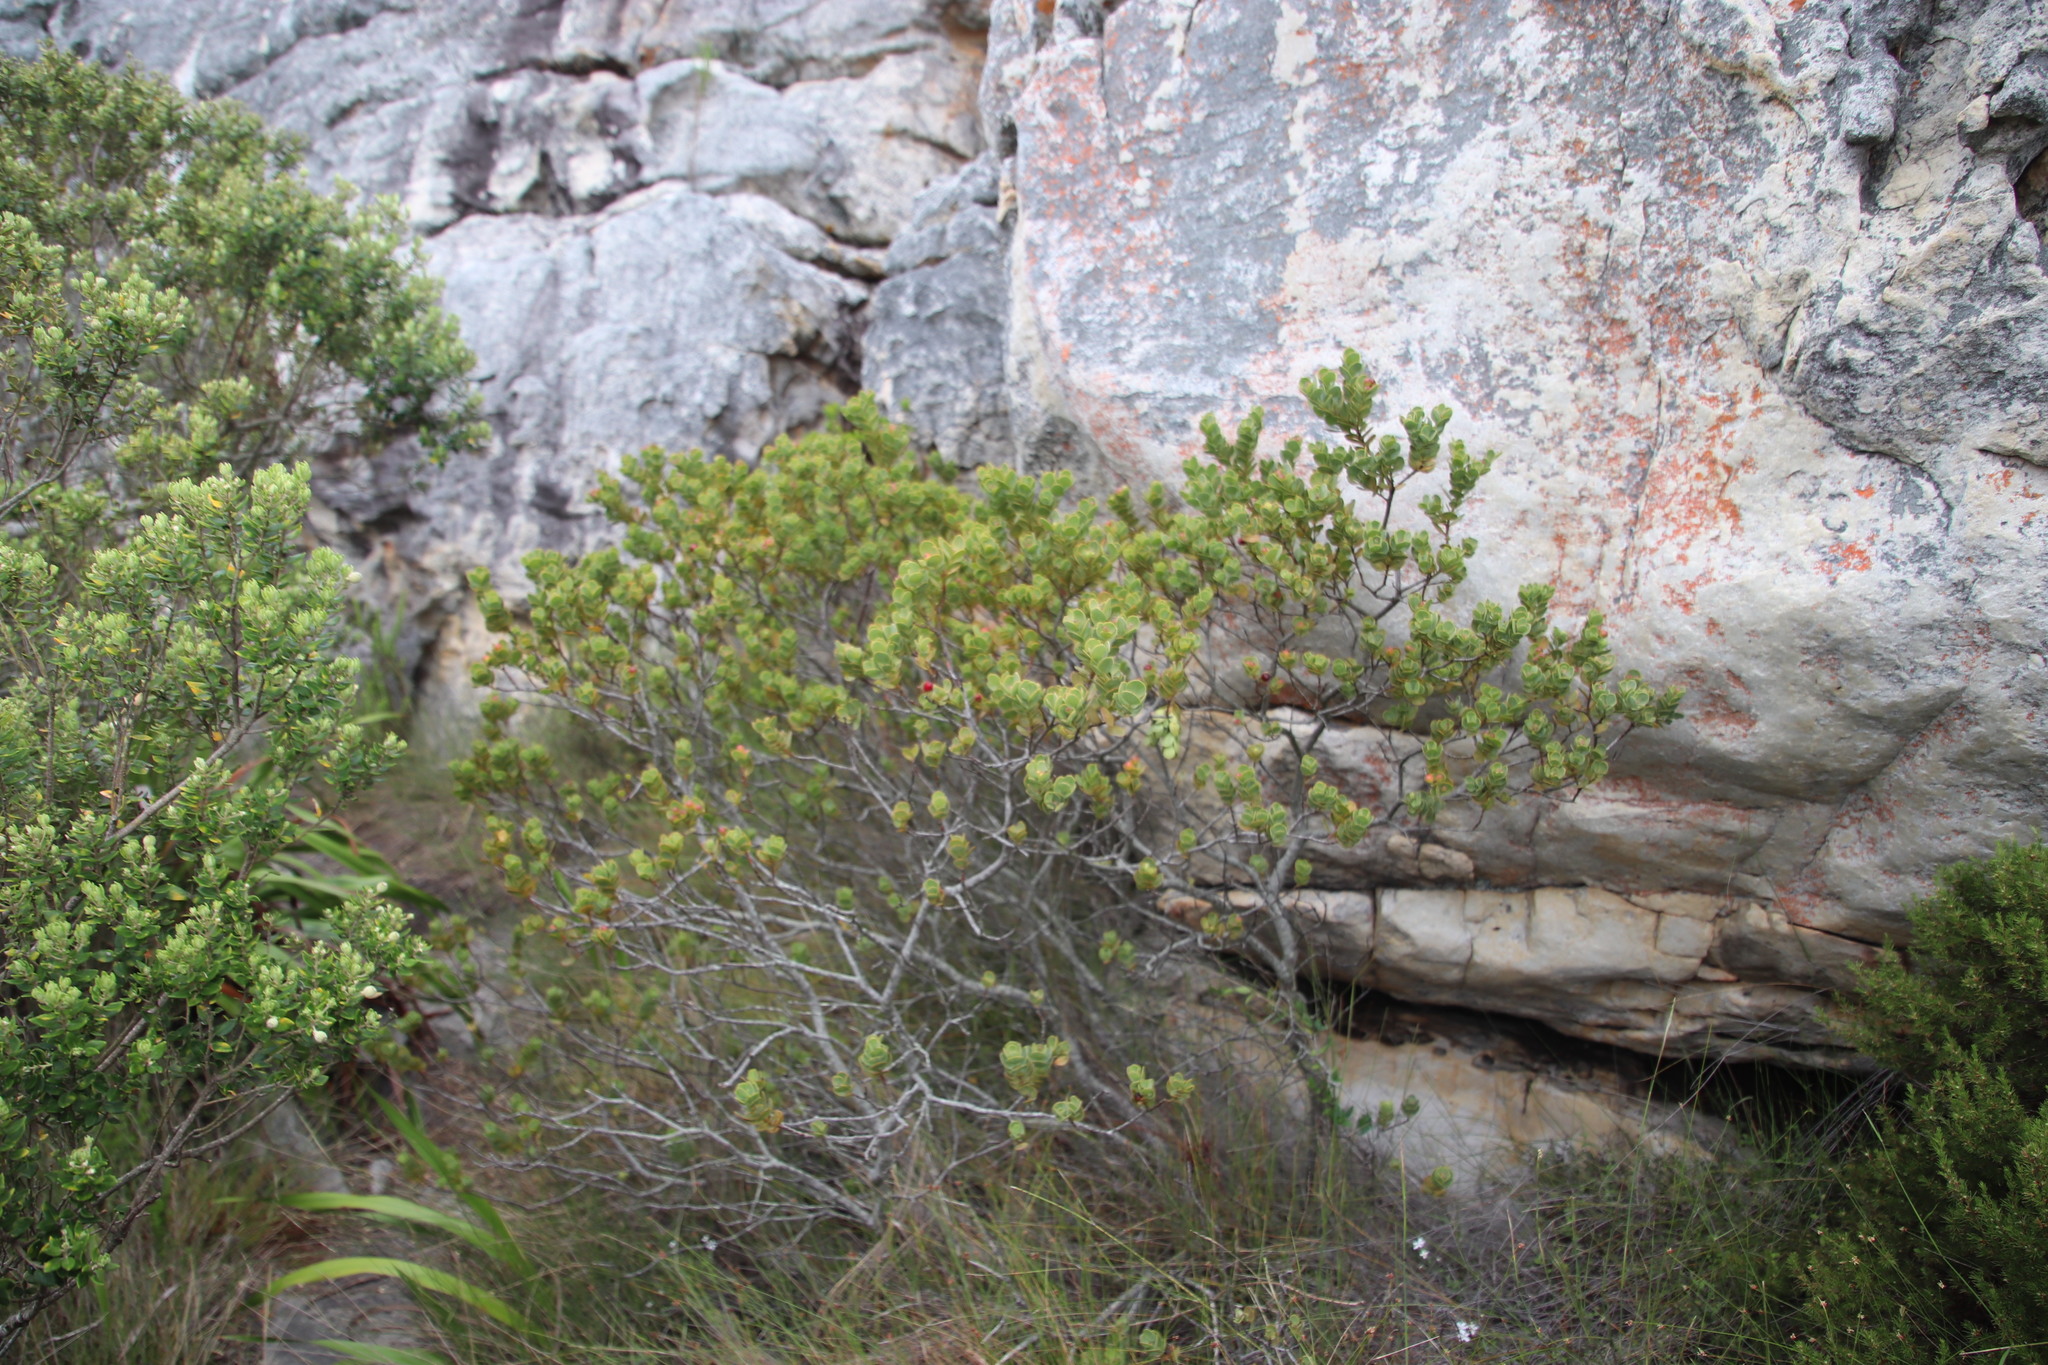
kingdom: Plantae
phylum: Tracheophyta
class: Magnoliopsida
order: Santalales
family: Santalaceae
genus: Osyris
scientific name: Osyris compressa
